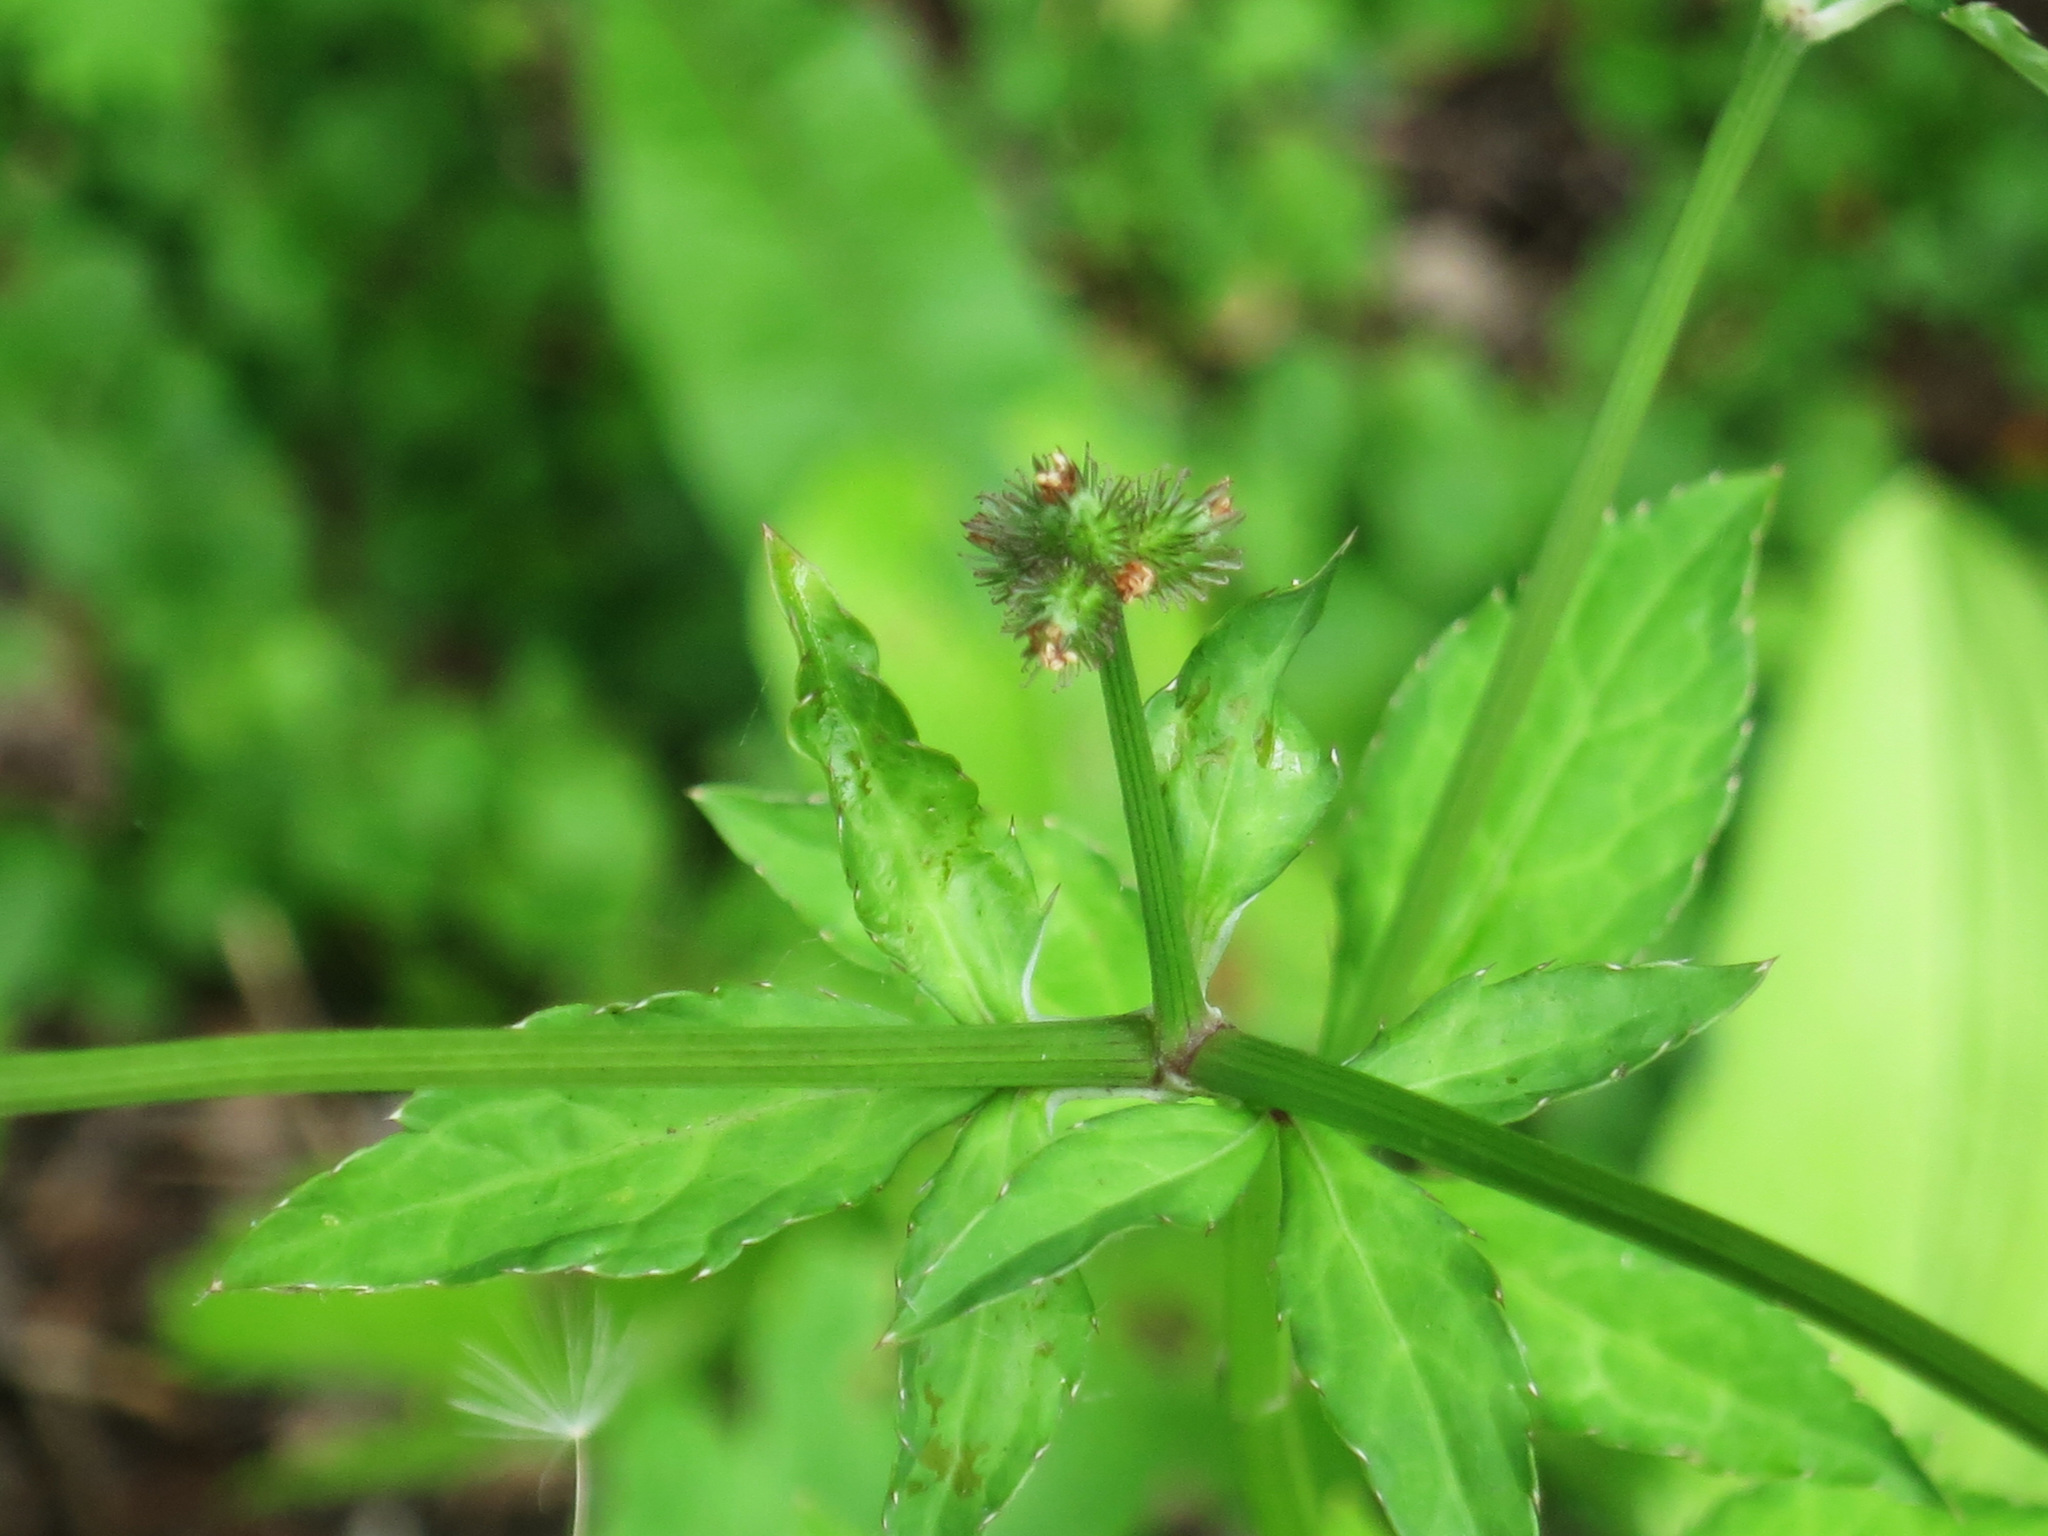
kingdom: Plantae
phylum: Tracheophyta
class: Magnoliopsida
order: Apiales
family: Apiaceae
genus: Sanicula
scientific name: Sanicula chinensis
